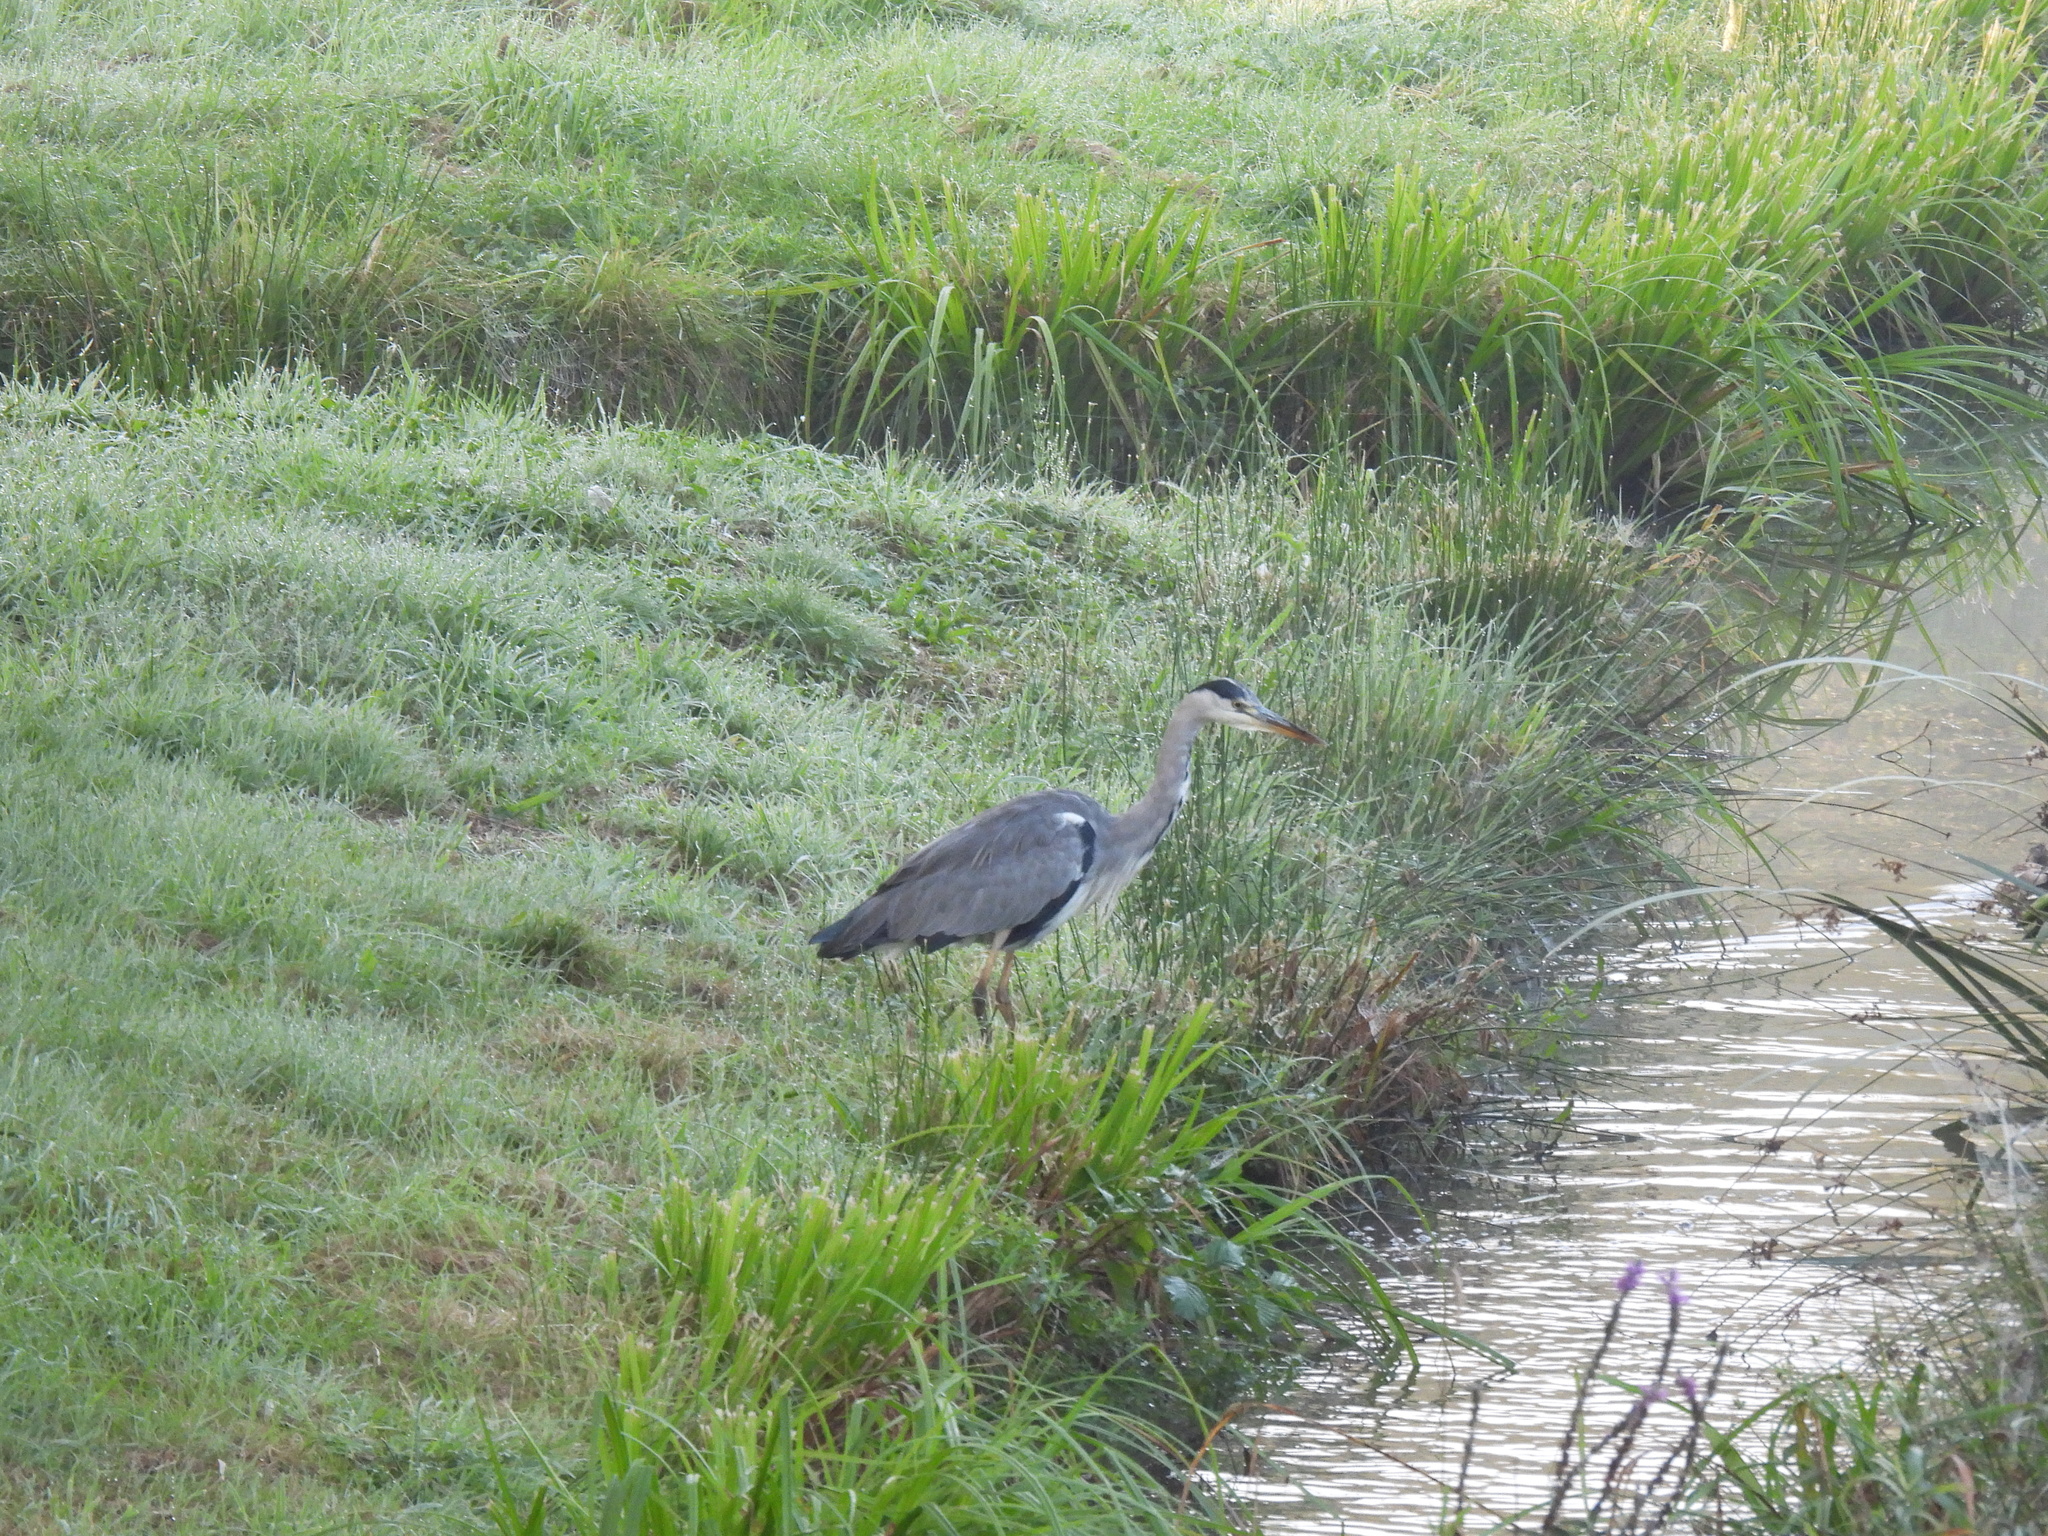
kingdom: Animalia
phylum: Chordata
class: Aves
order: Pelecaniformes
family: Ardeidae
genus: Ardea
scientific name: Ardea cinerea
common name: Grey heron
